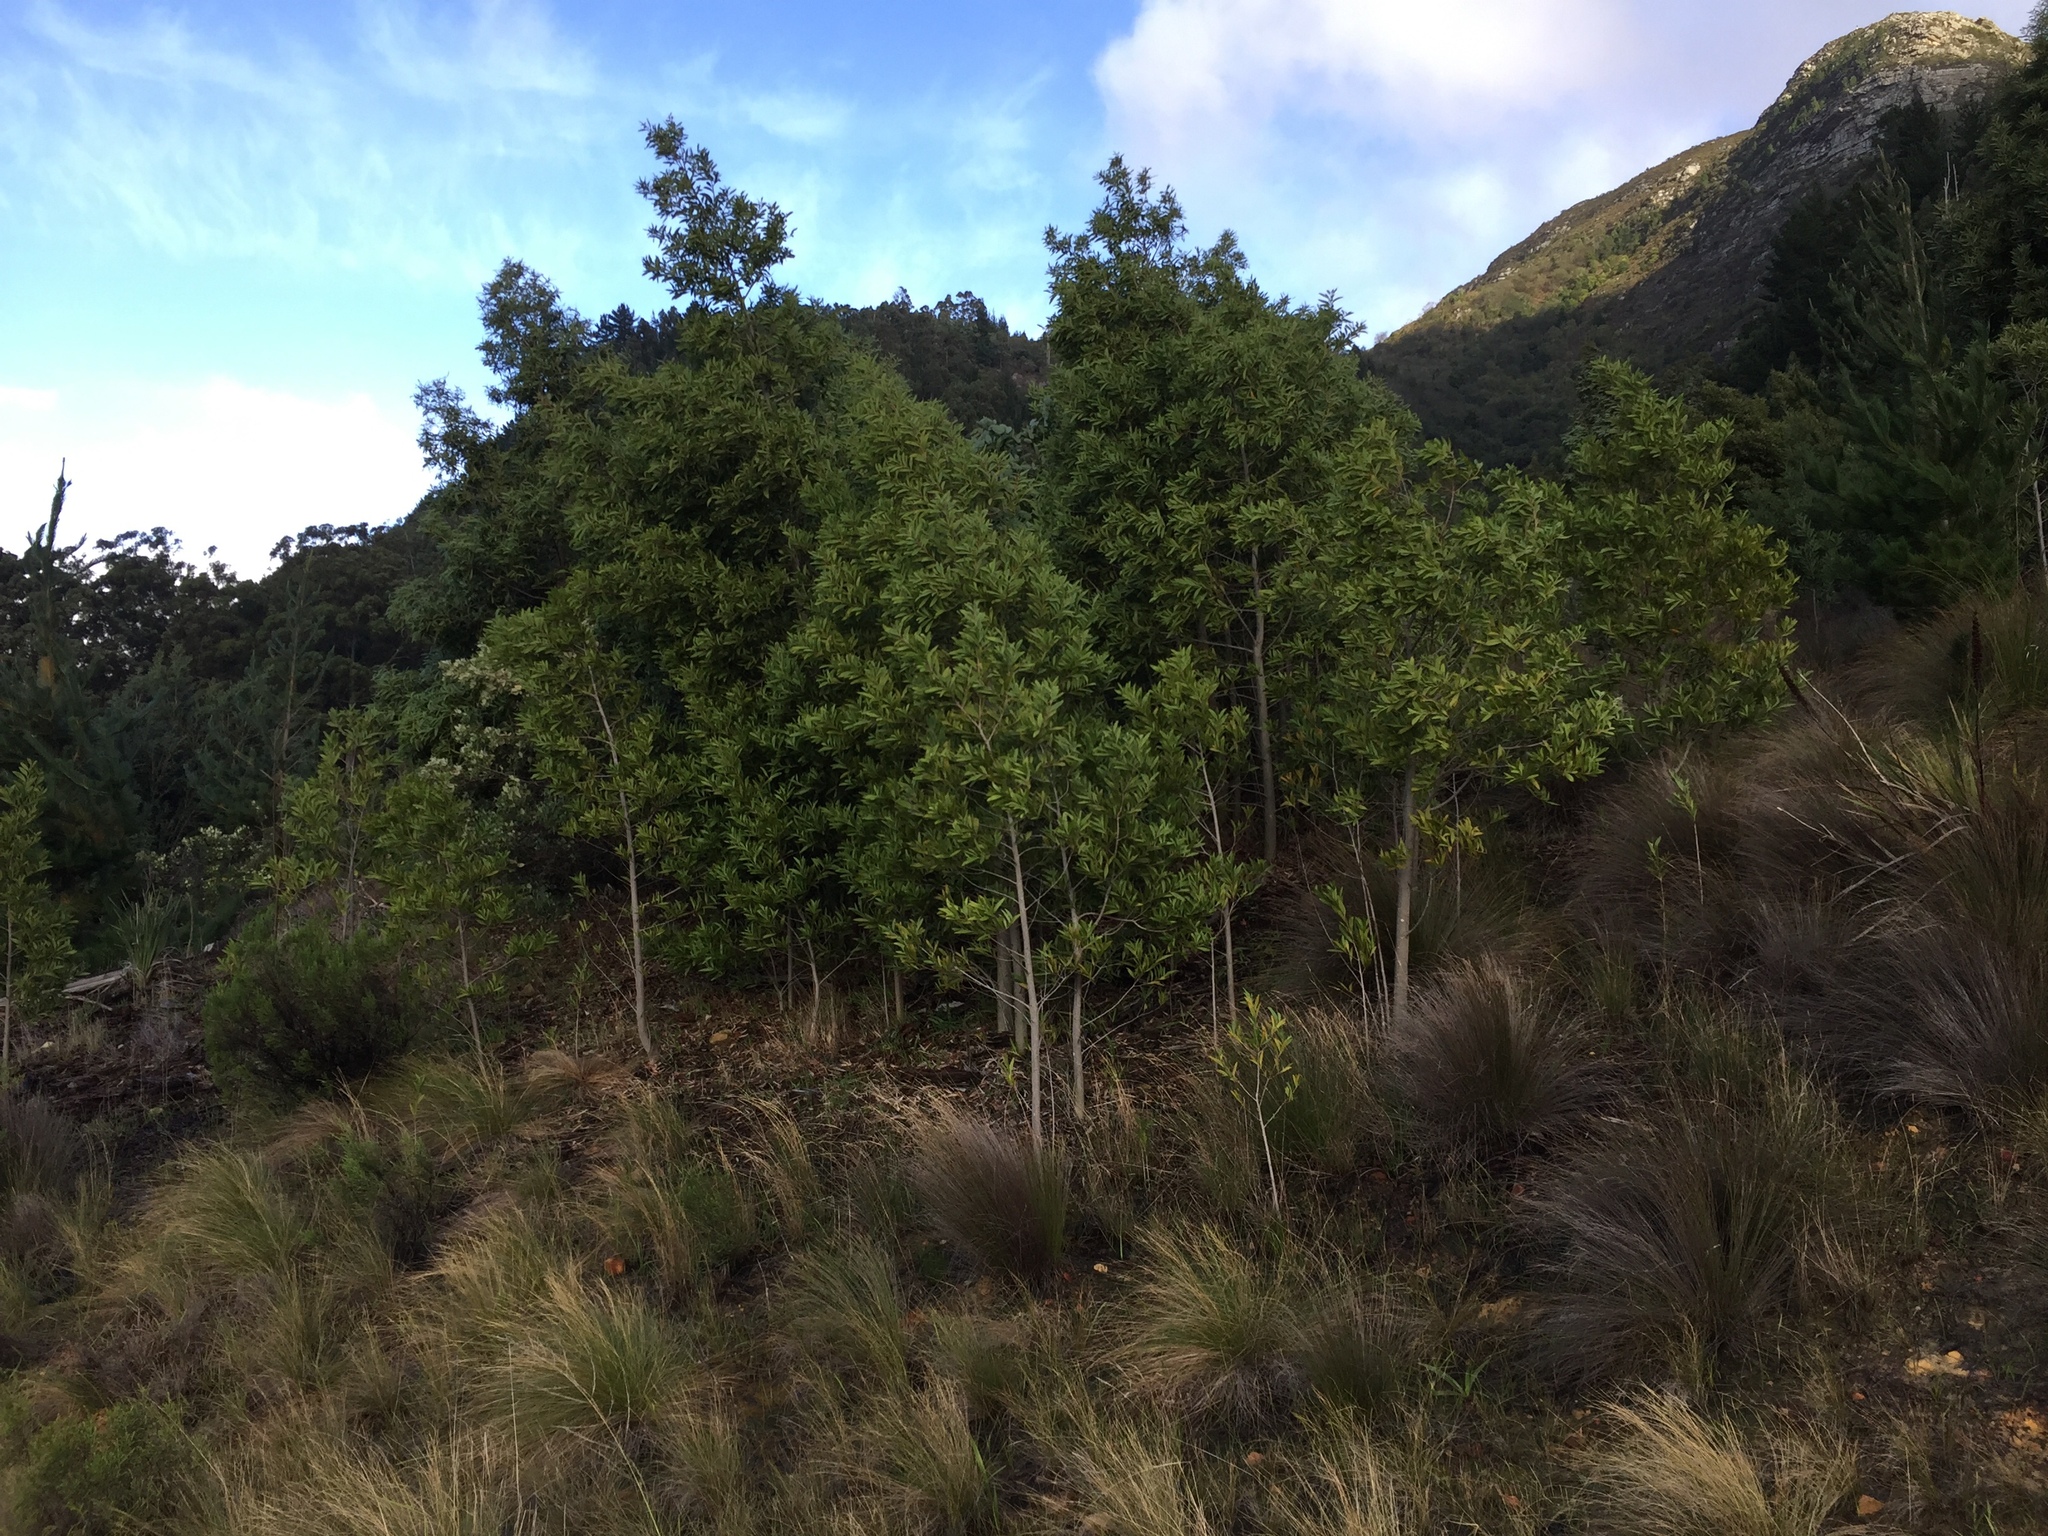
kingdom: Plantae
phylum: Tracheophyta
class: Magnoliopsida
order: Fabales
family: Fabaceae
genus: Acacia
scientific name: Acacia melanoxylon
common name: Blackwood
